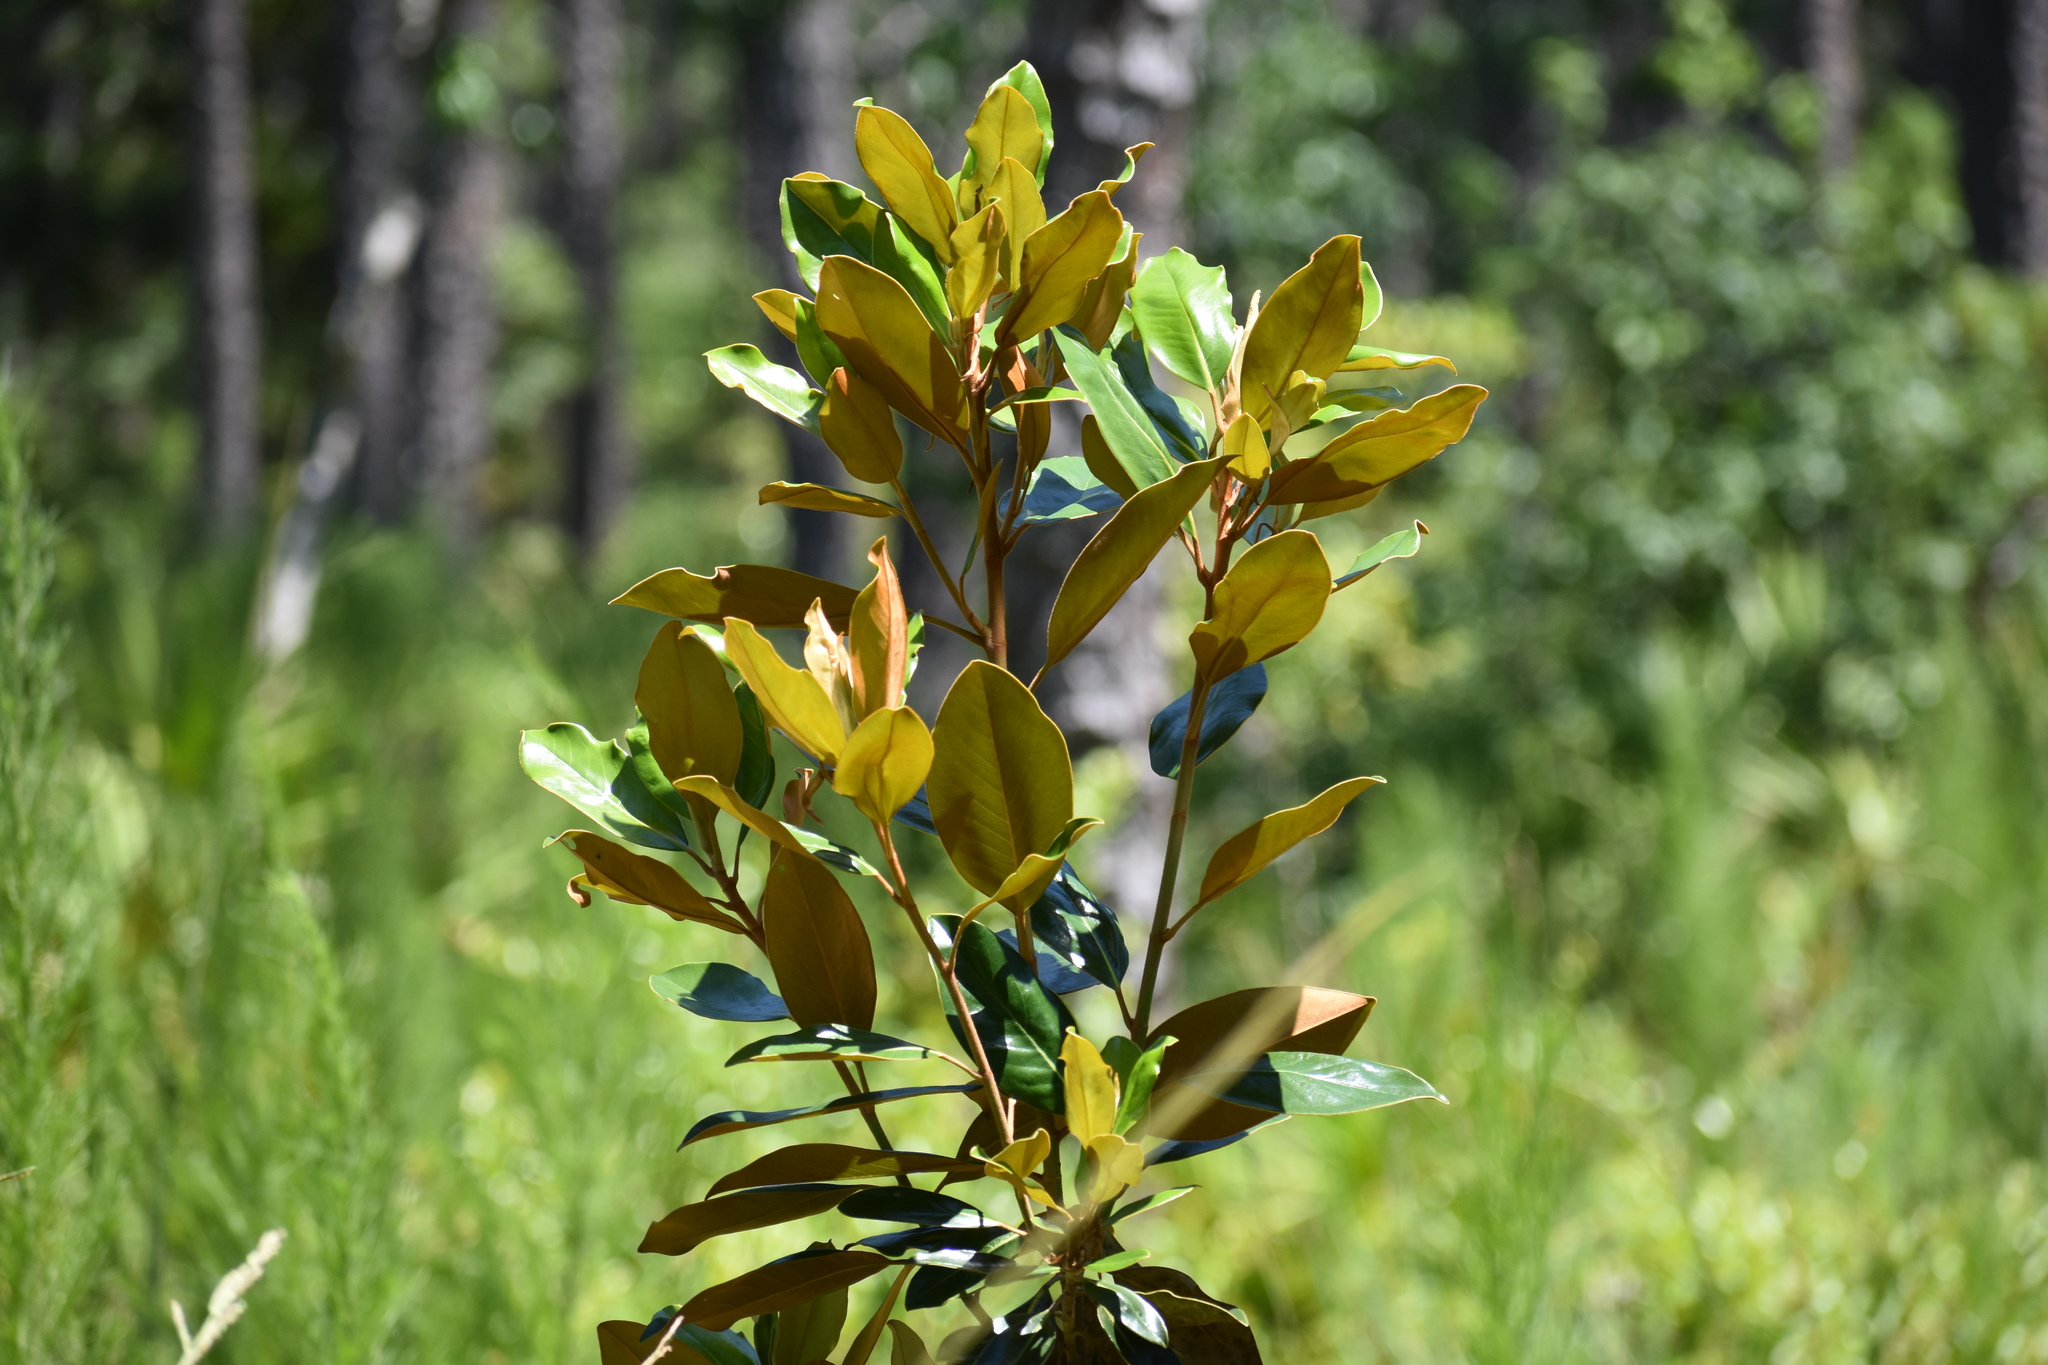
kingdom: Plantae
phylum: Tracheophyta
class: Magnoliopsida
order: Magnoliales
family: Magnoliaceae
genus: Magnolia
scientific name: Magnolia grandiflora
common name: Southern magnolia
